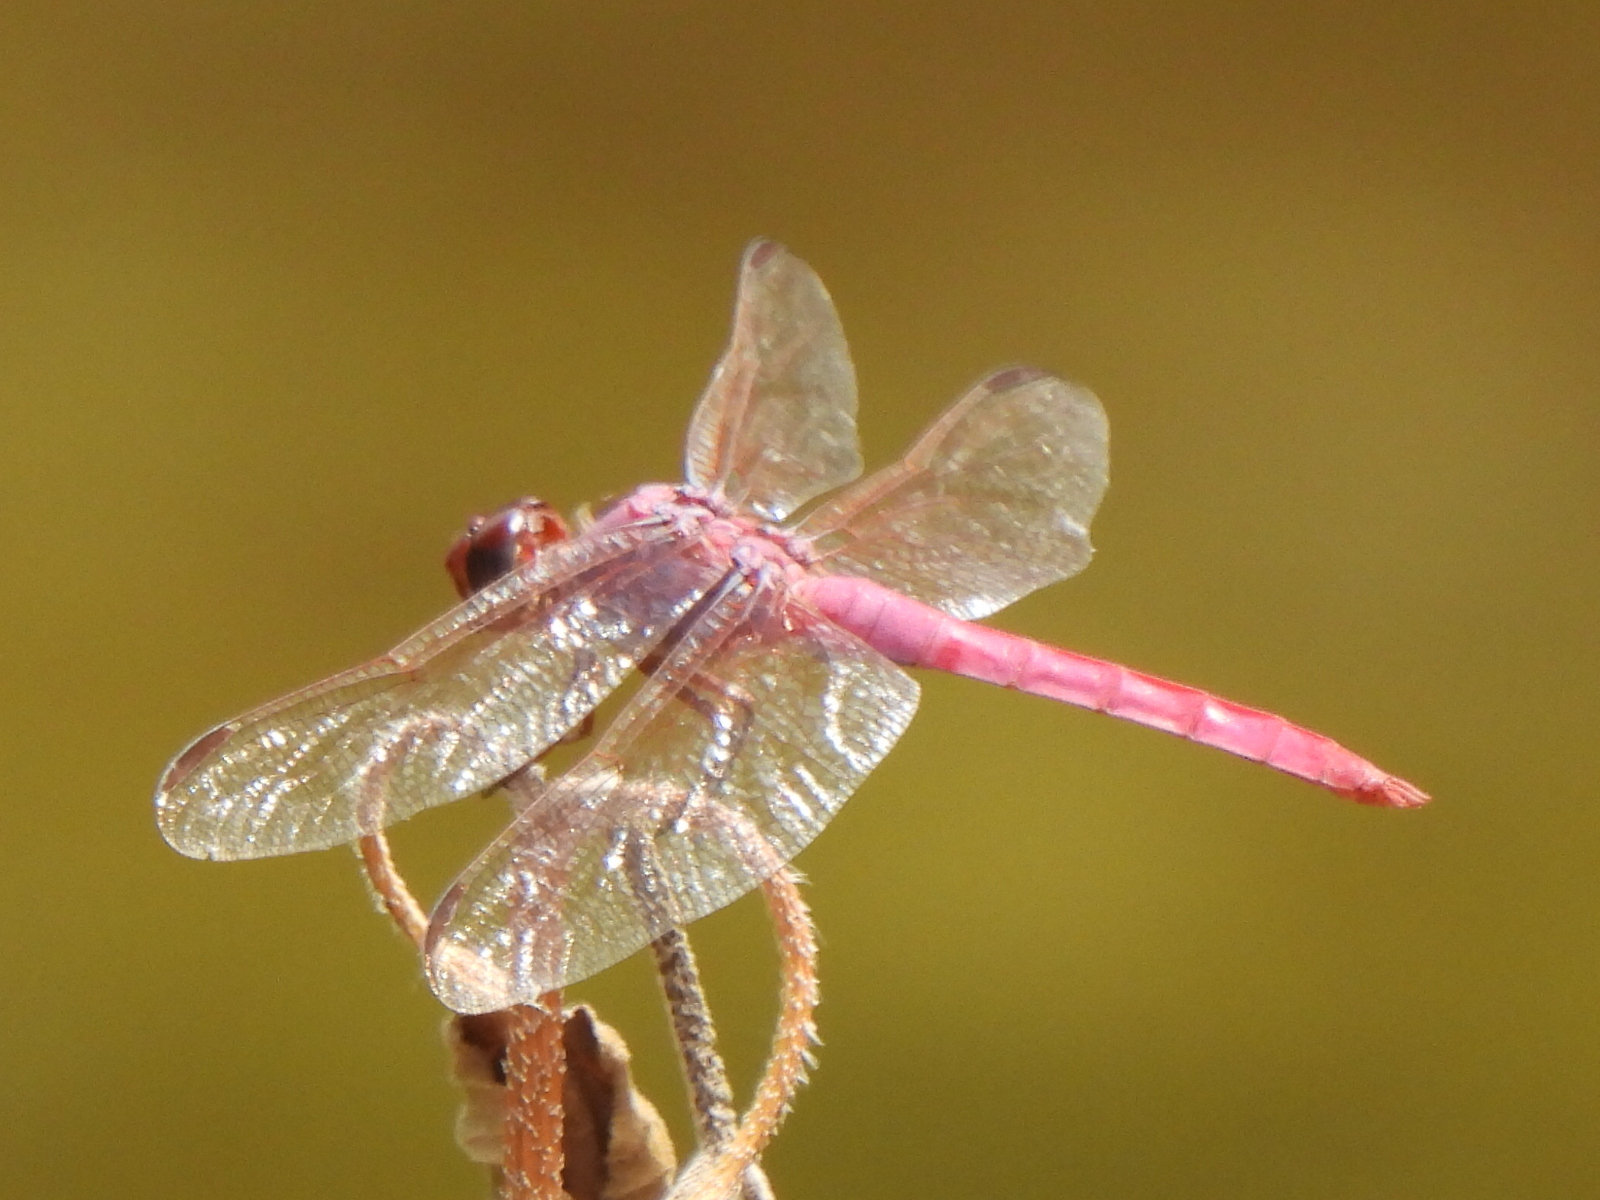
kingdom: Animalia
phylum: Arthropoda
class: Insecta
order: Odonata
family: Libellulidae
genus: Orthemis
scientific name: Orthemis ferruginea
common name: Roseate skimmer
